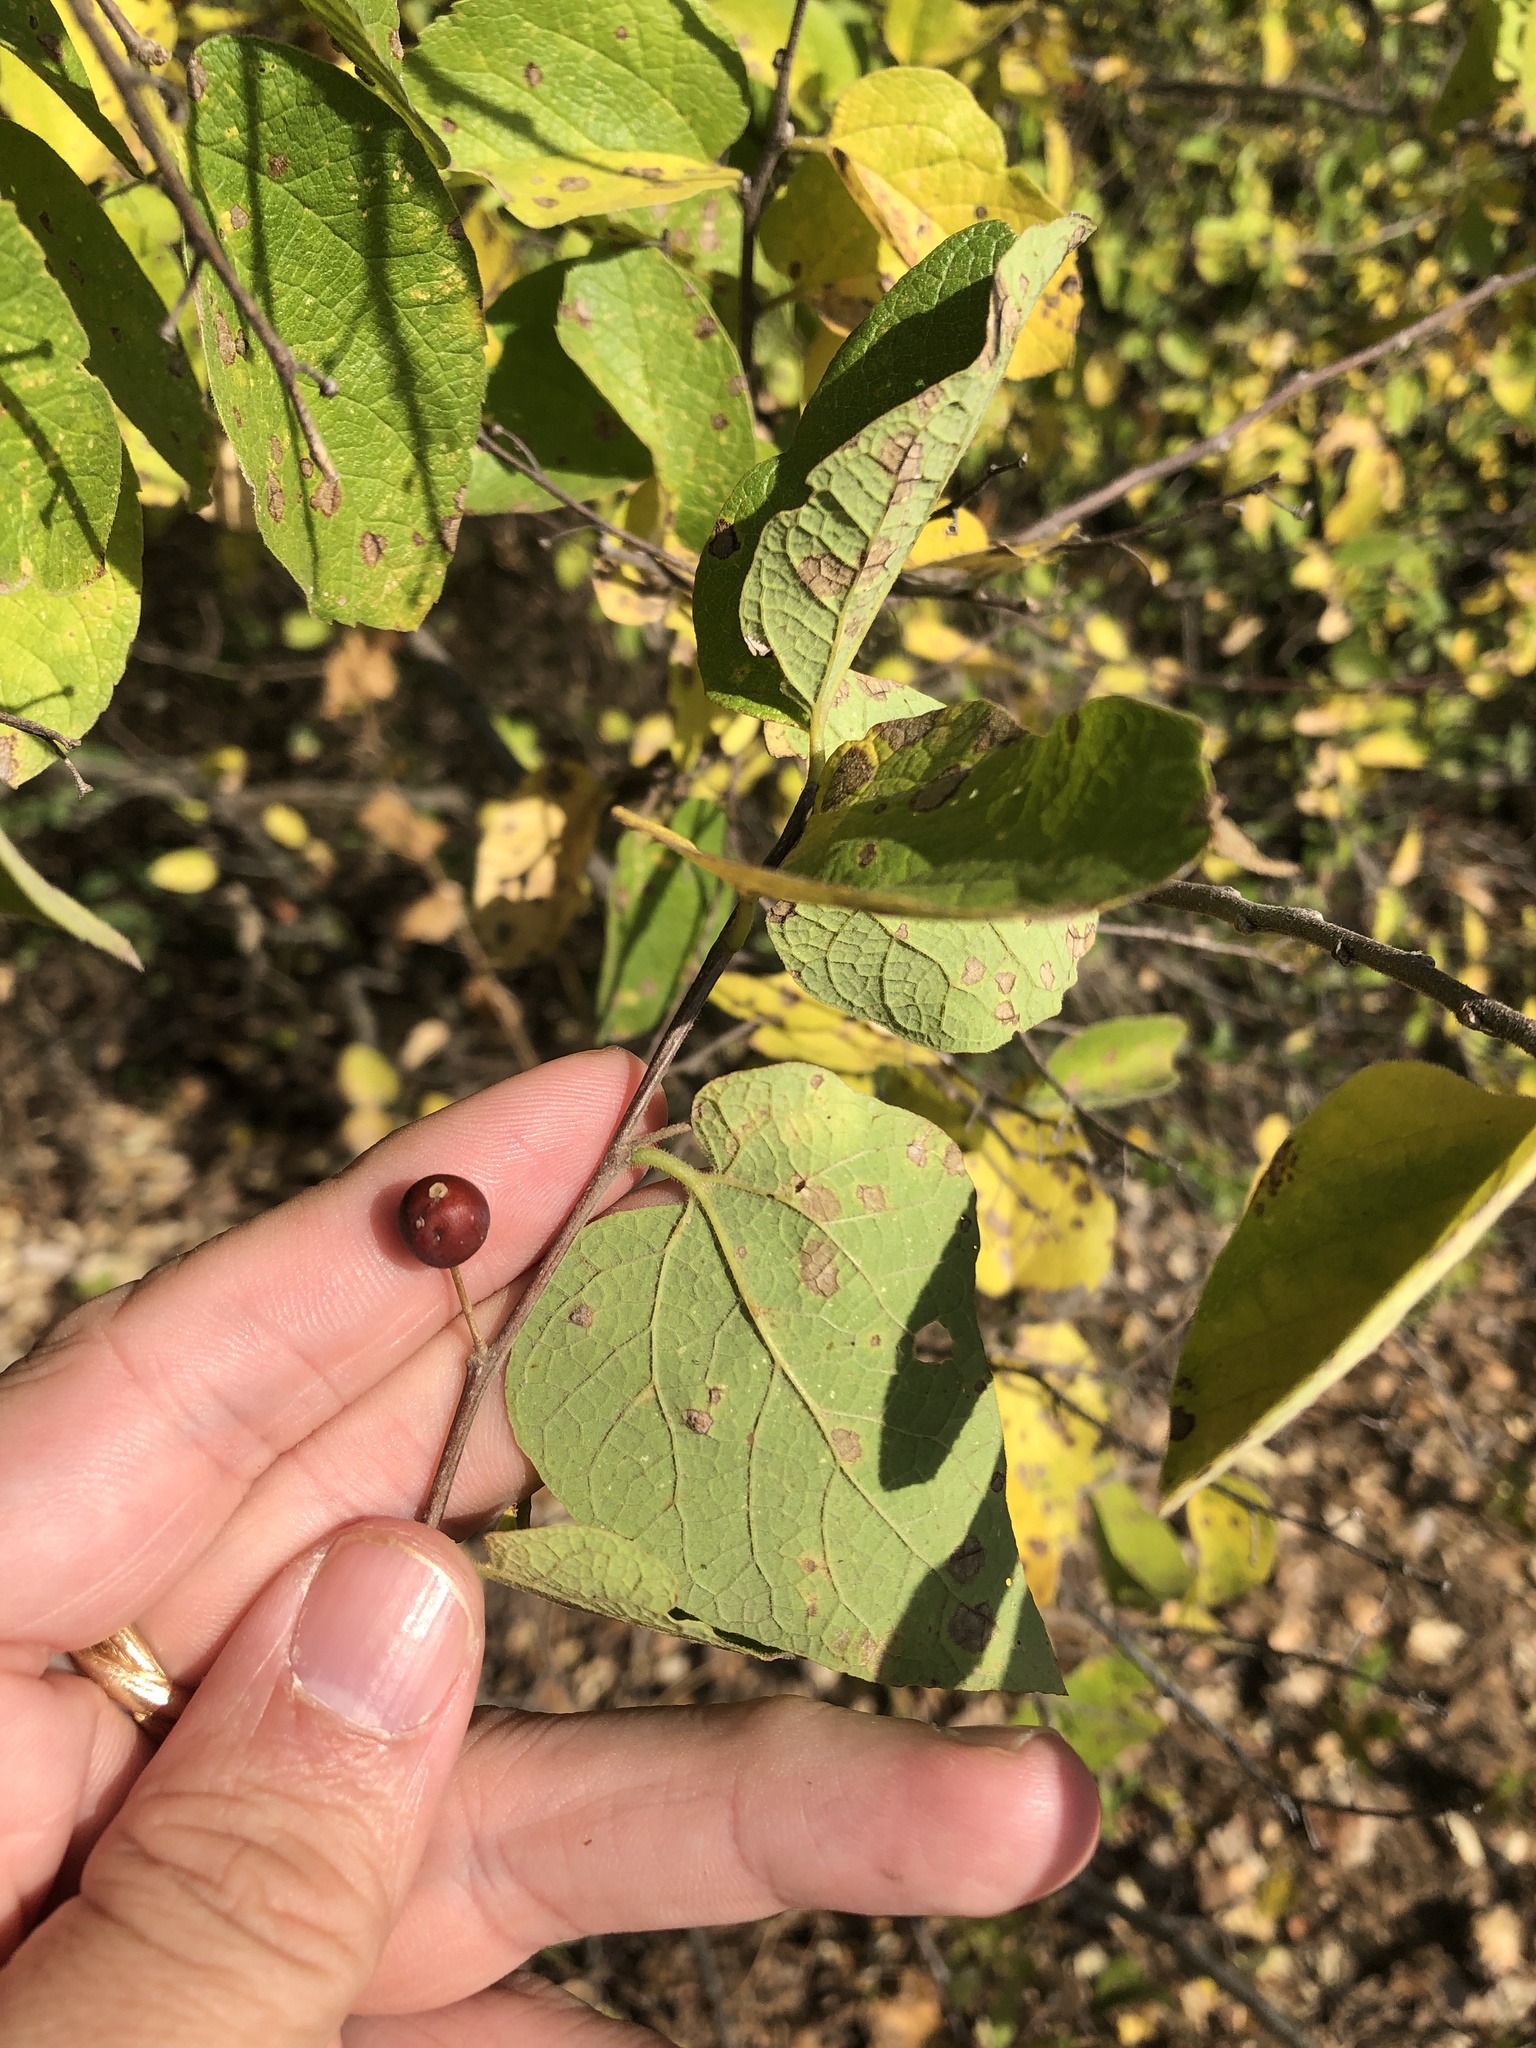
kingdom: Plantae
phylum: Tracheophyta
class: Magnoliopsida
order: Rosales
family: Cannabaceae
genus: Celtis
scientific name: Celtis reticulata
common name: Netleaf hackberry
